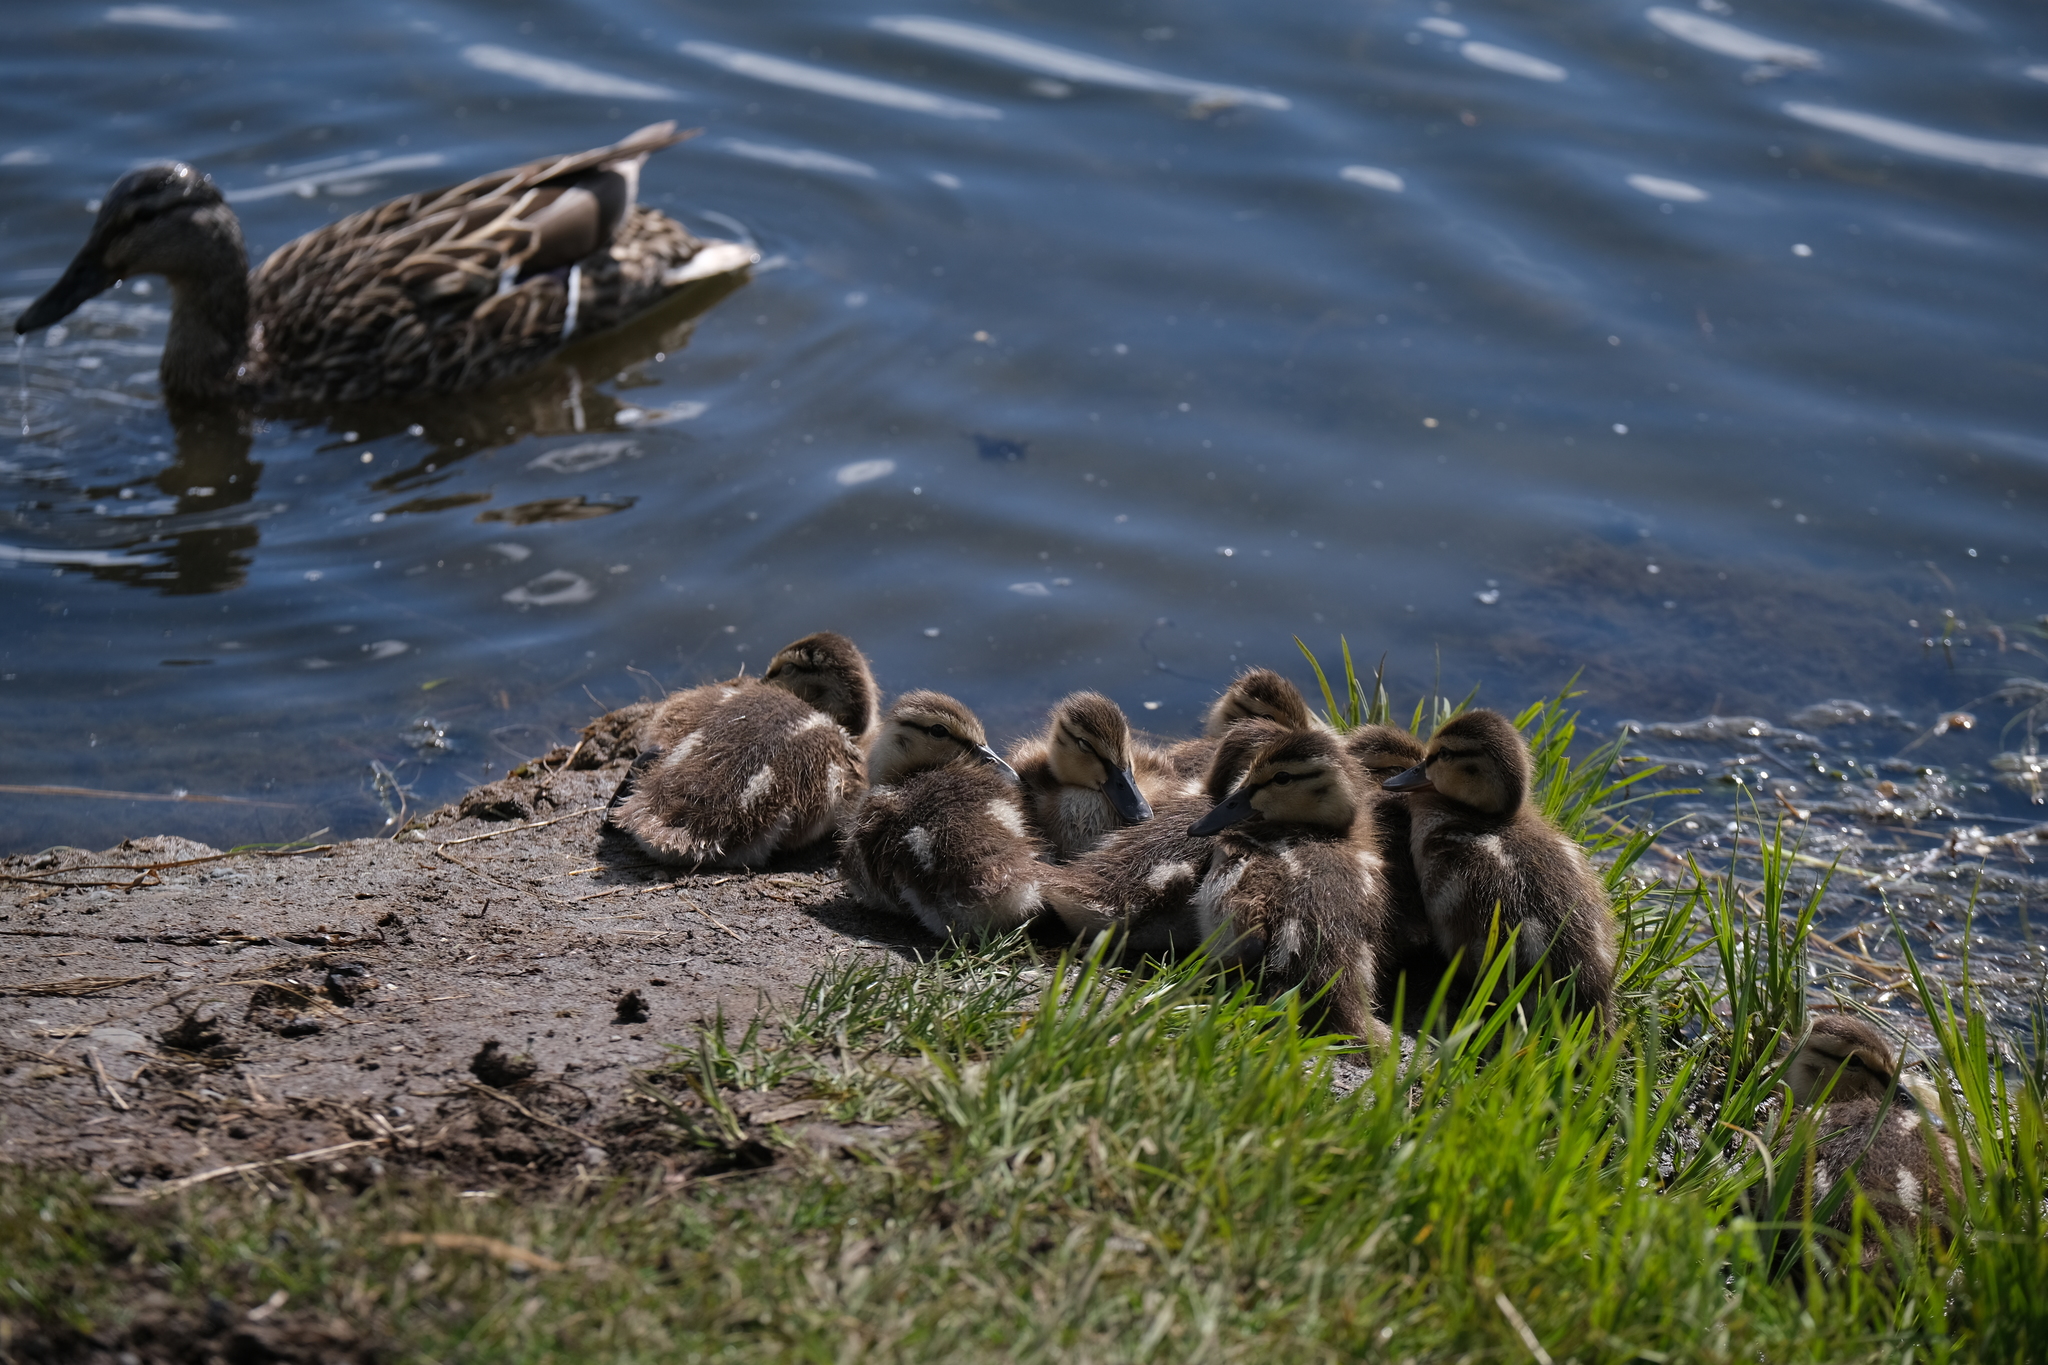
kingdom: Animalia
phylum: Chordata
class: Aves
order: Anseriformes
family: Anatidae
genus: Anas
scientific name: Anas platyrhynchos
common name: Mallard
